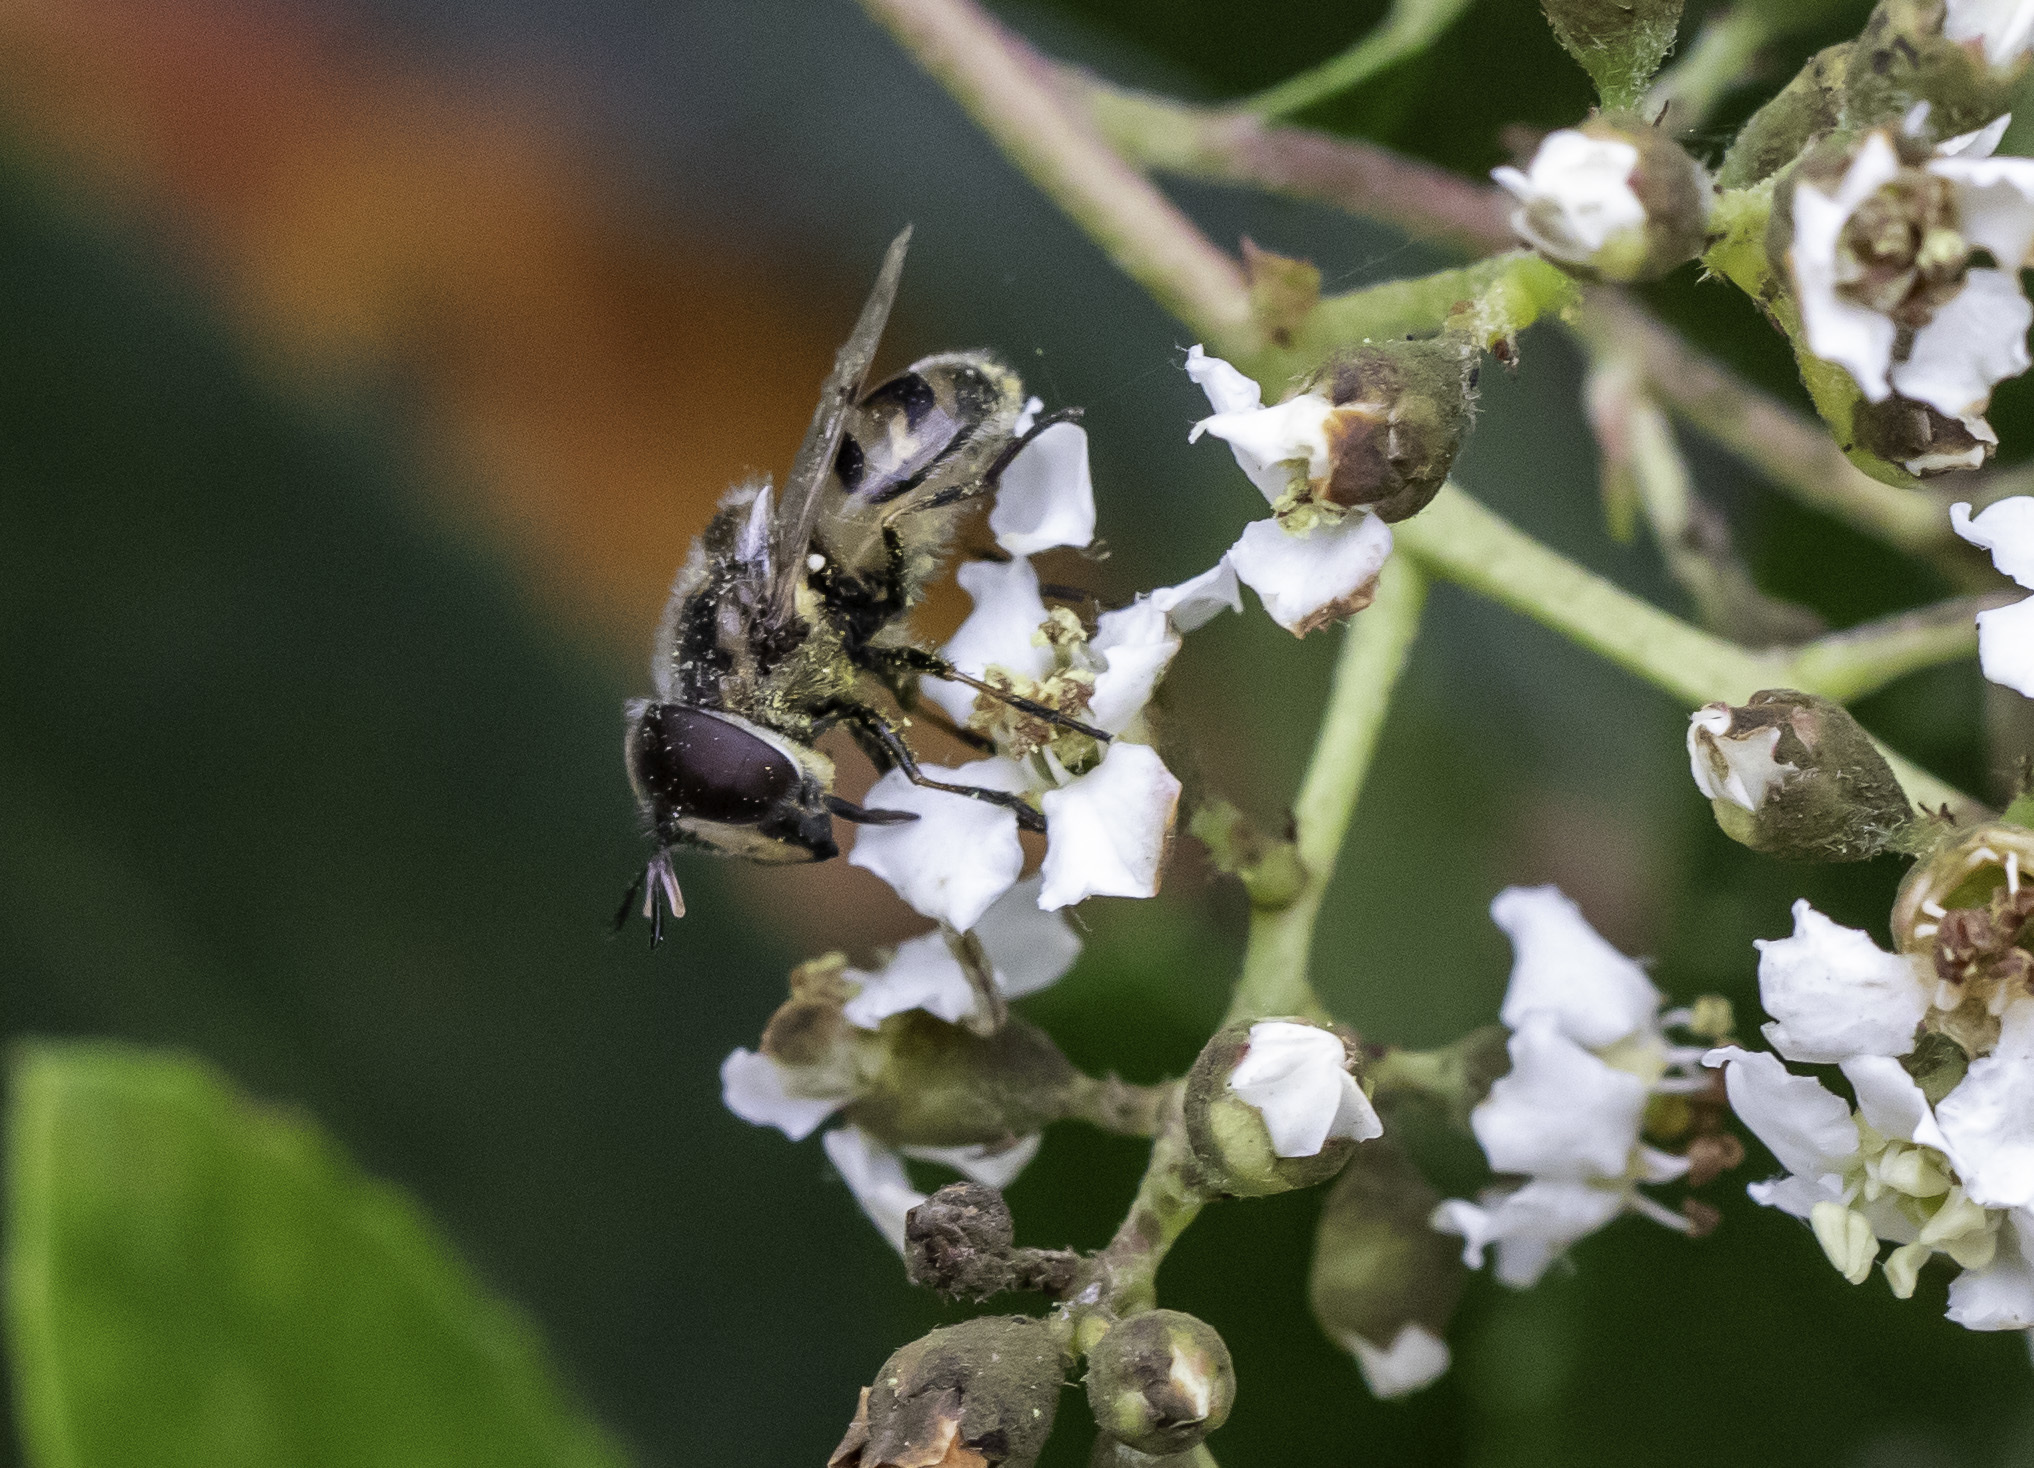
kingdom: Animalia
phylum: Arthropoda
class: Insecta
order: Diptera
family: Syrphidae
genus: Copestylum
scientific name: Copestylum marginatum
